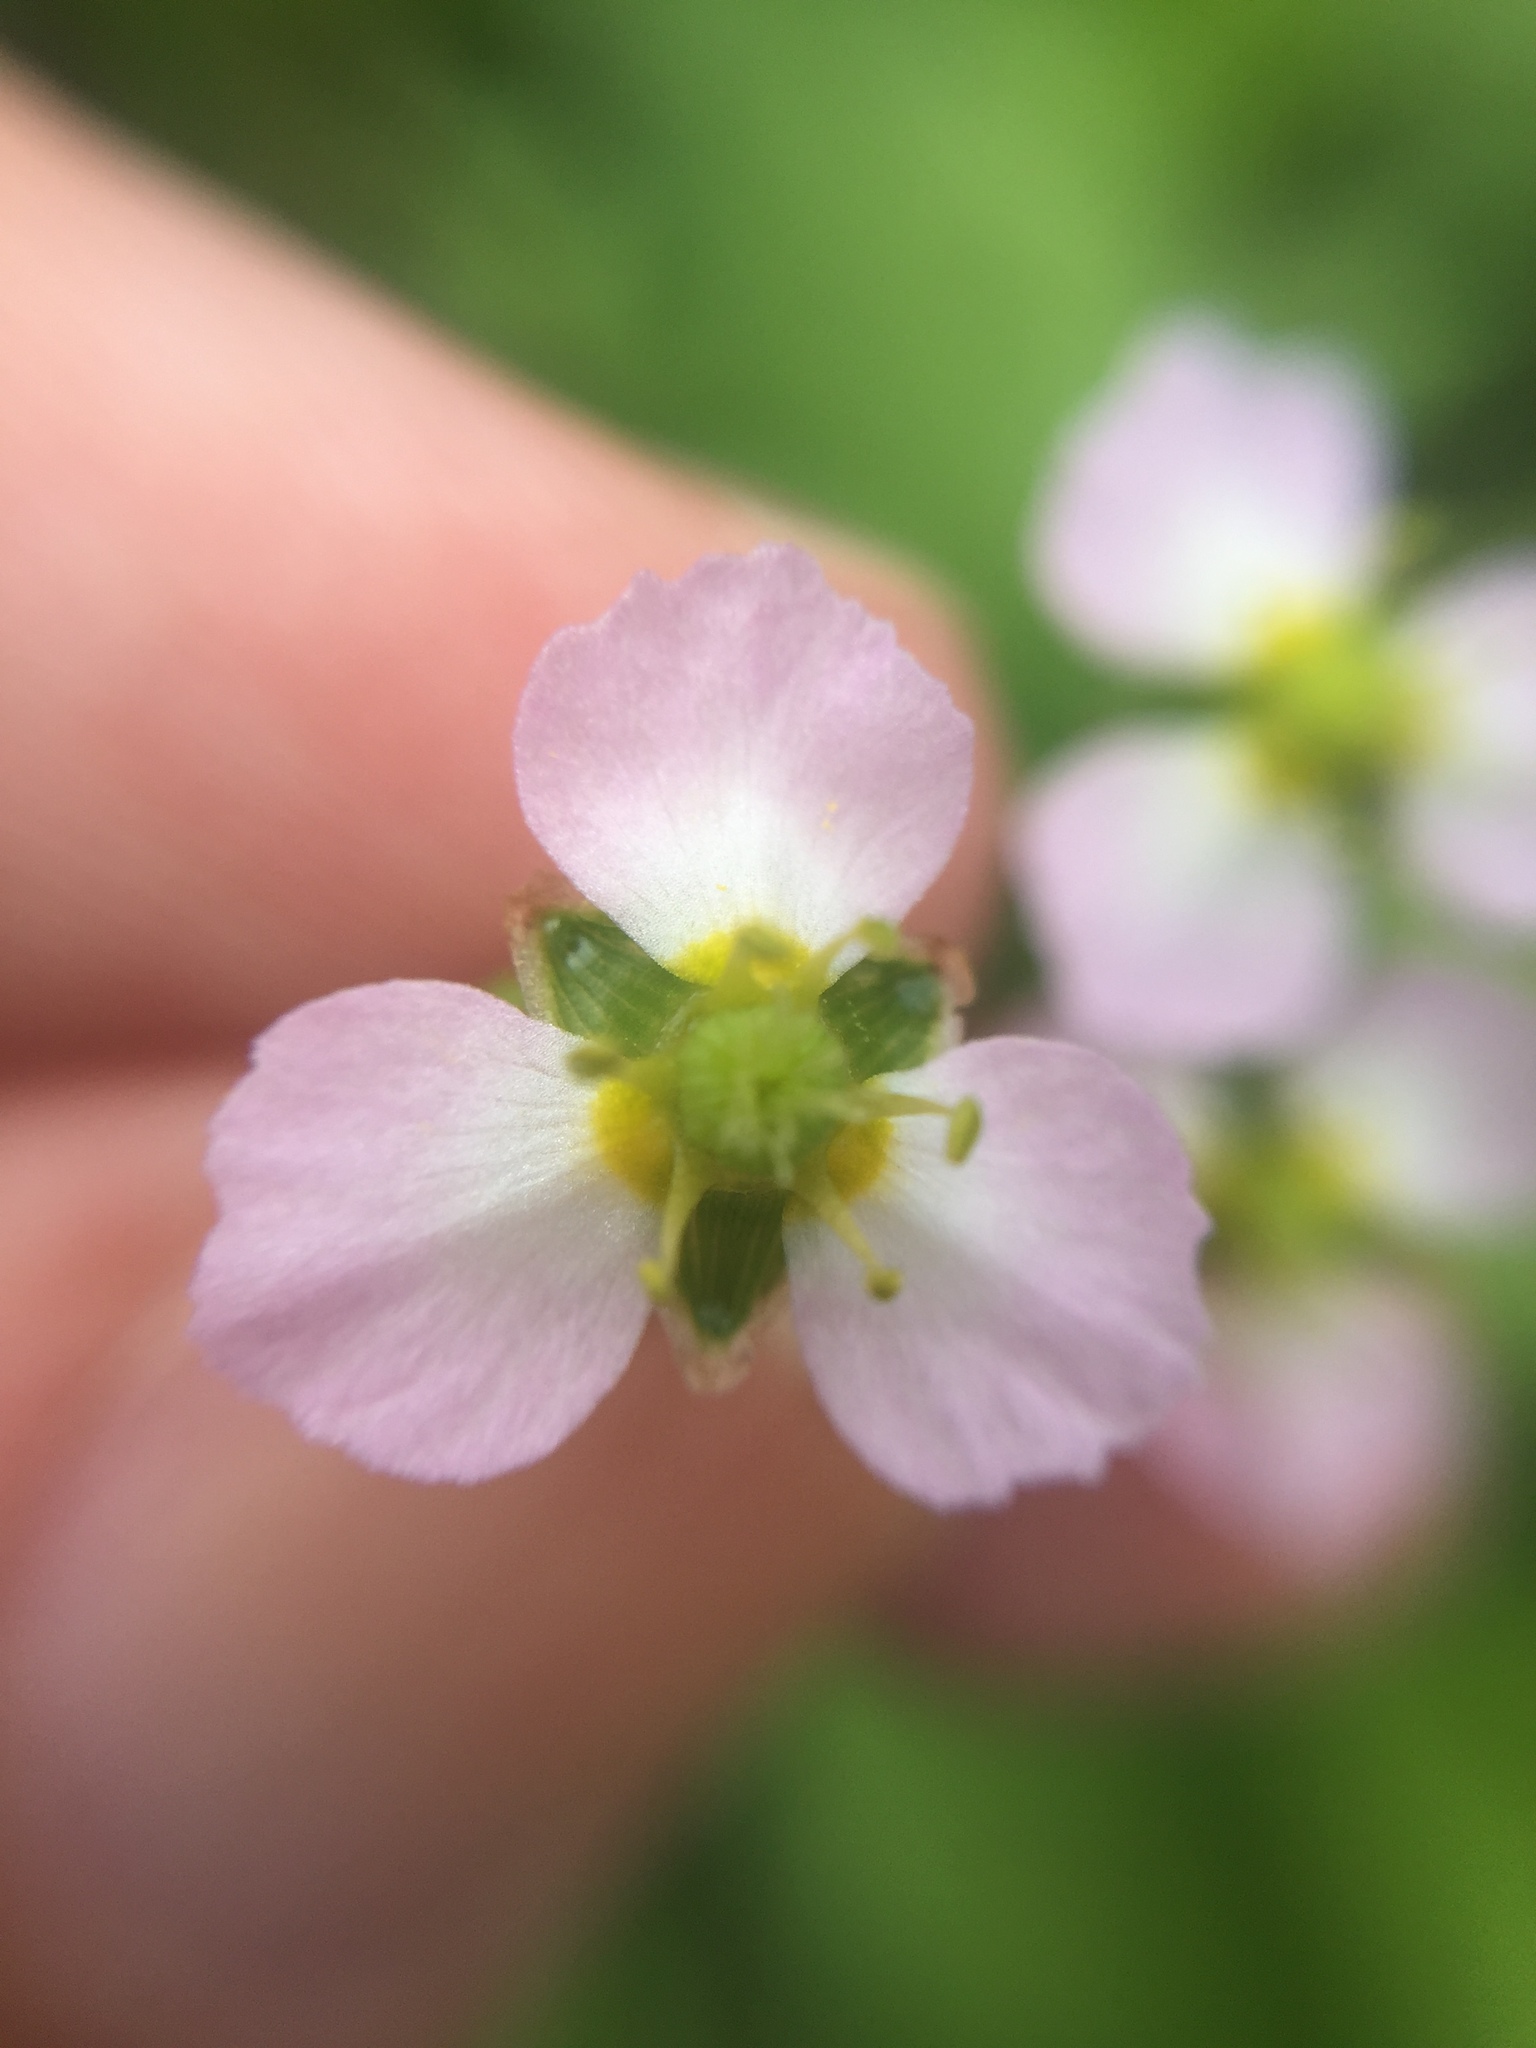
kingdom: Plantae
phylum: Tracheophyta
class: Liliopsida
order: Alismatales
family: Alismataceae
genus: Alisma
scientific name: Alisma plantago-aquatica
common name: Water-plantain
